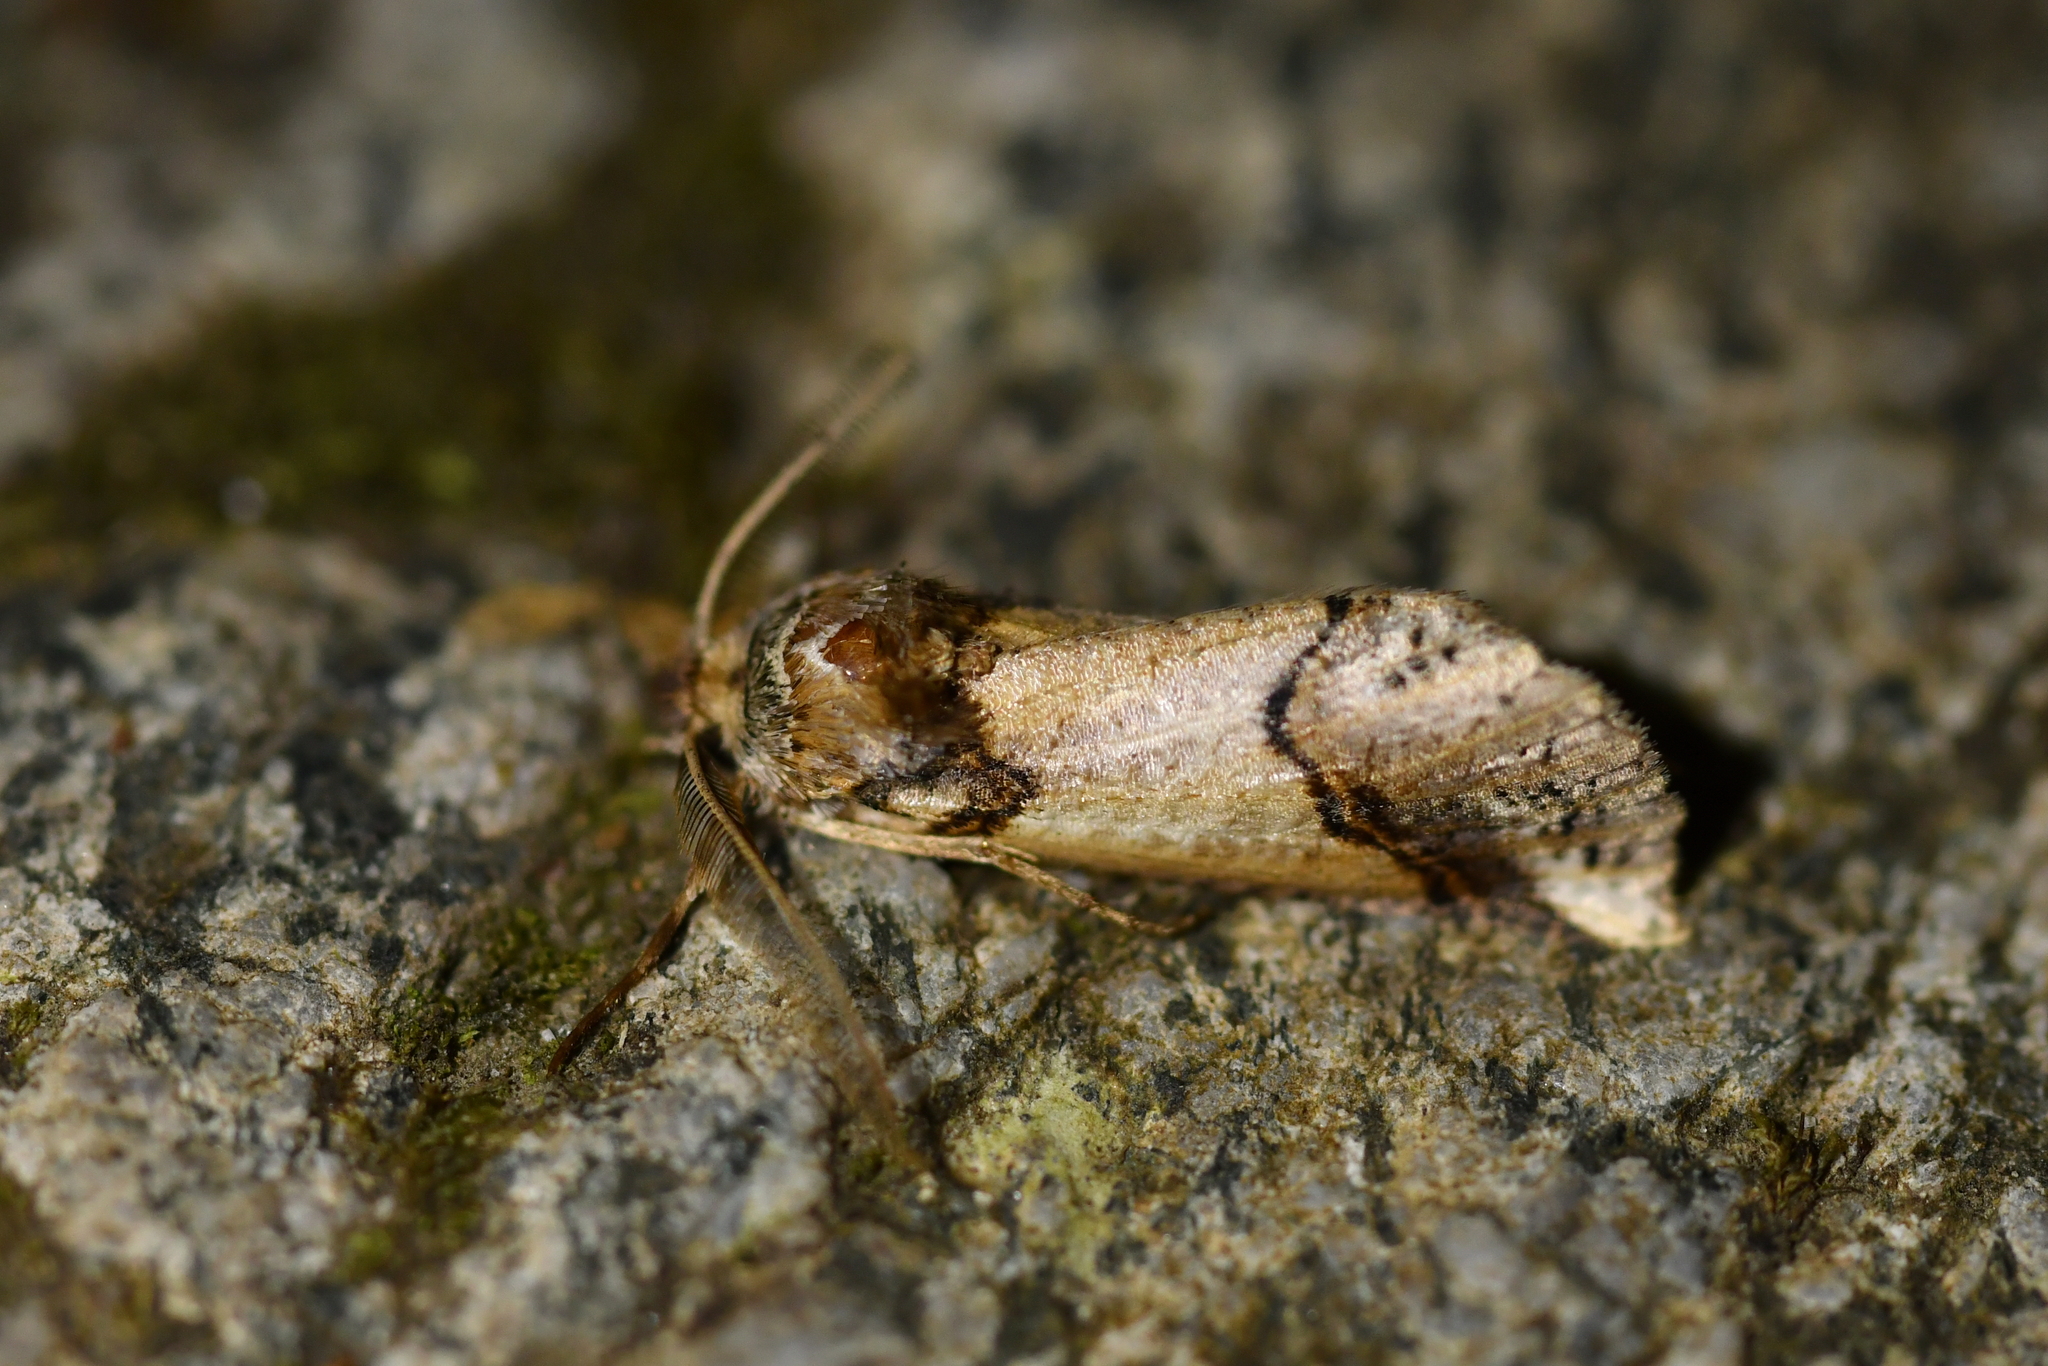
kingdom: Animalia
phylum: Arthropoda
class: Insecta
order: Lepidoptera
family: Geometridae
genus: Declana
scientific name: Declana
